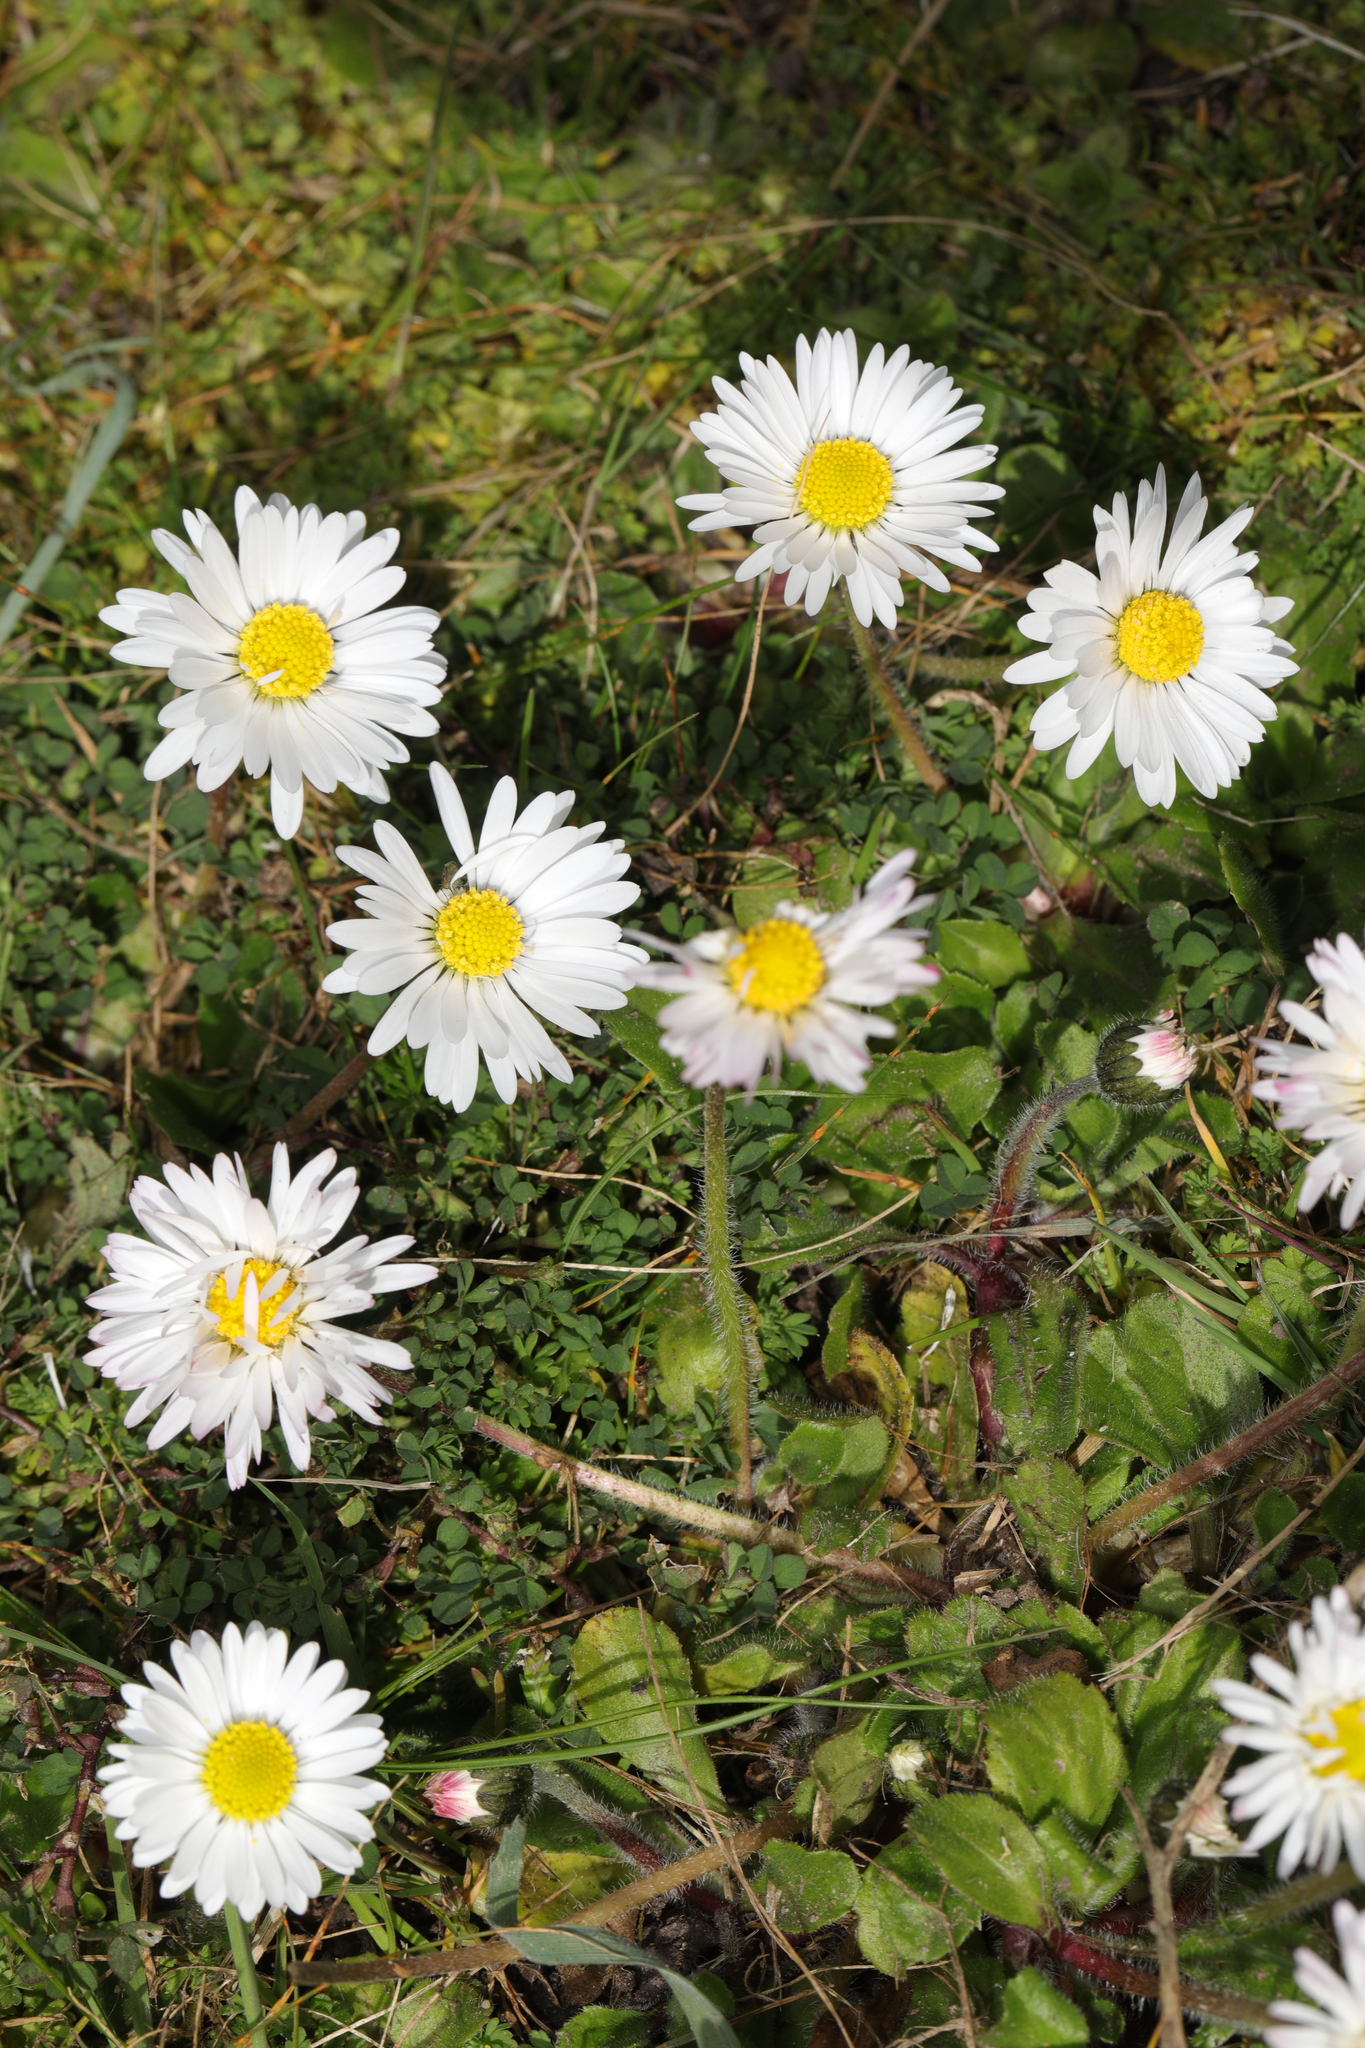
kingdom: Plantae
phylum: Tracheophyta
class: Magnoliopsida
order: Asterales
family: Asteraceae
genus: Bellis
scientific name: Bellis perennis
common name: Lawndaisy
